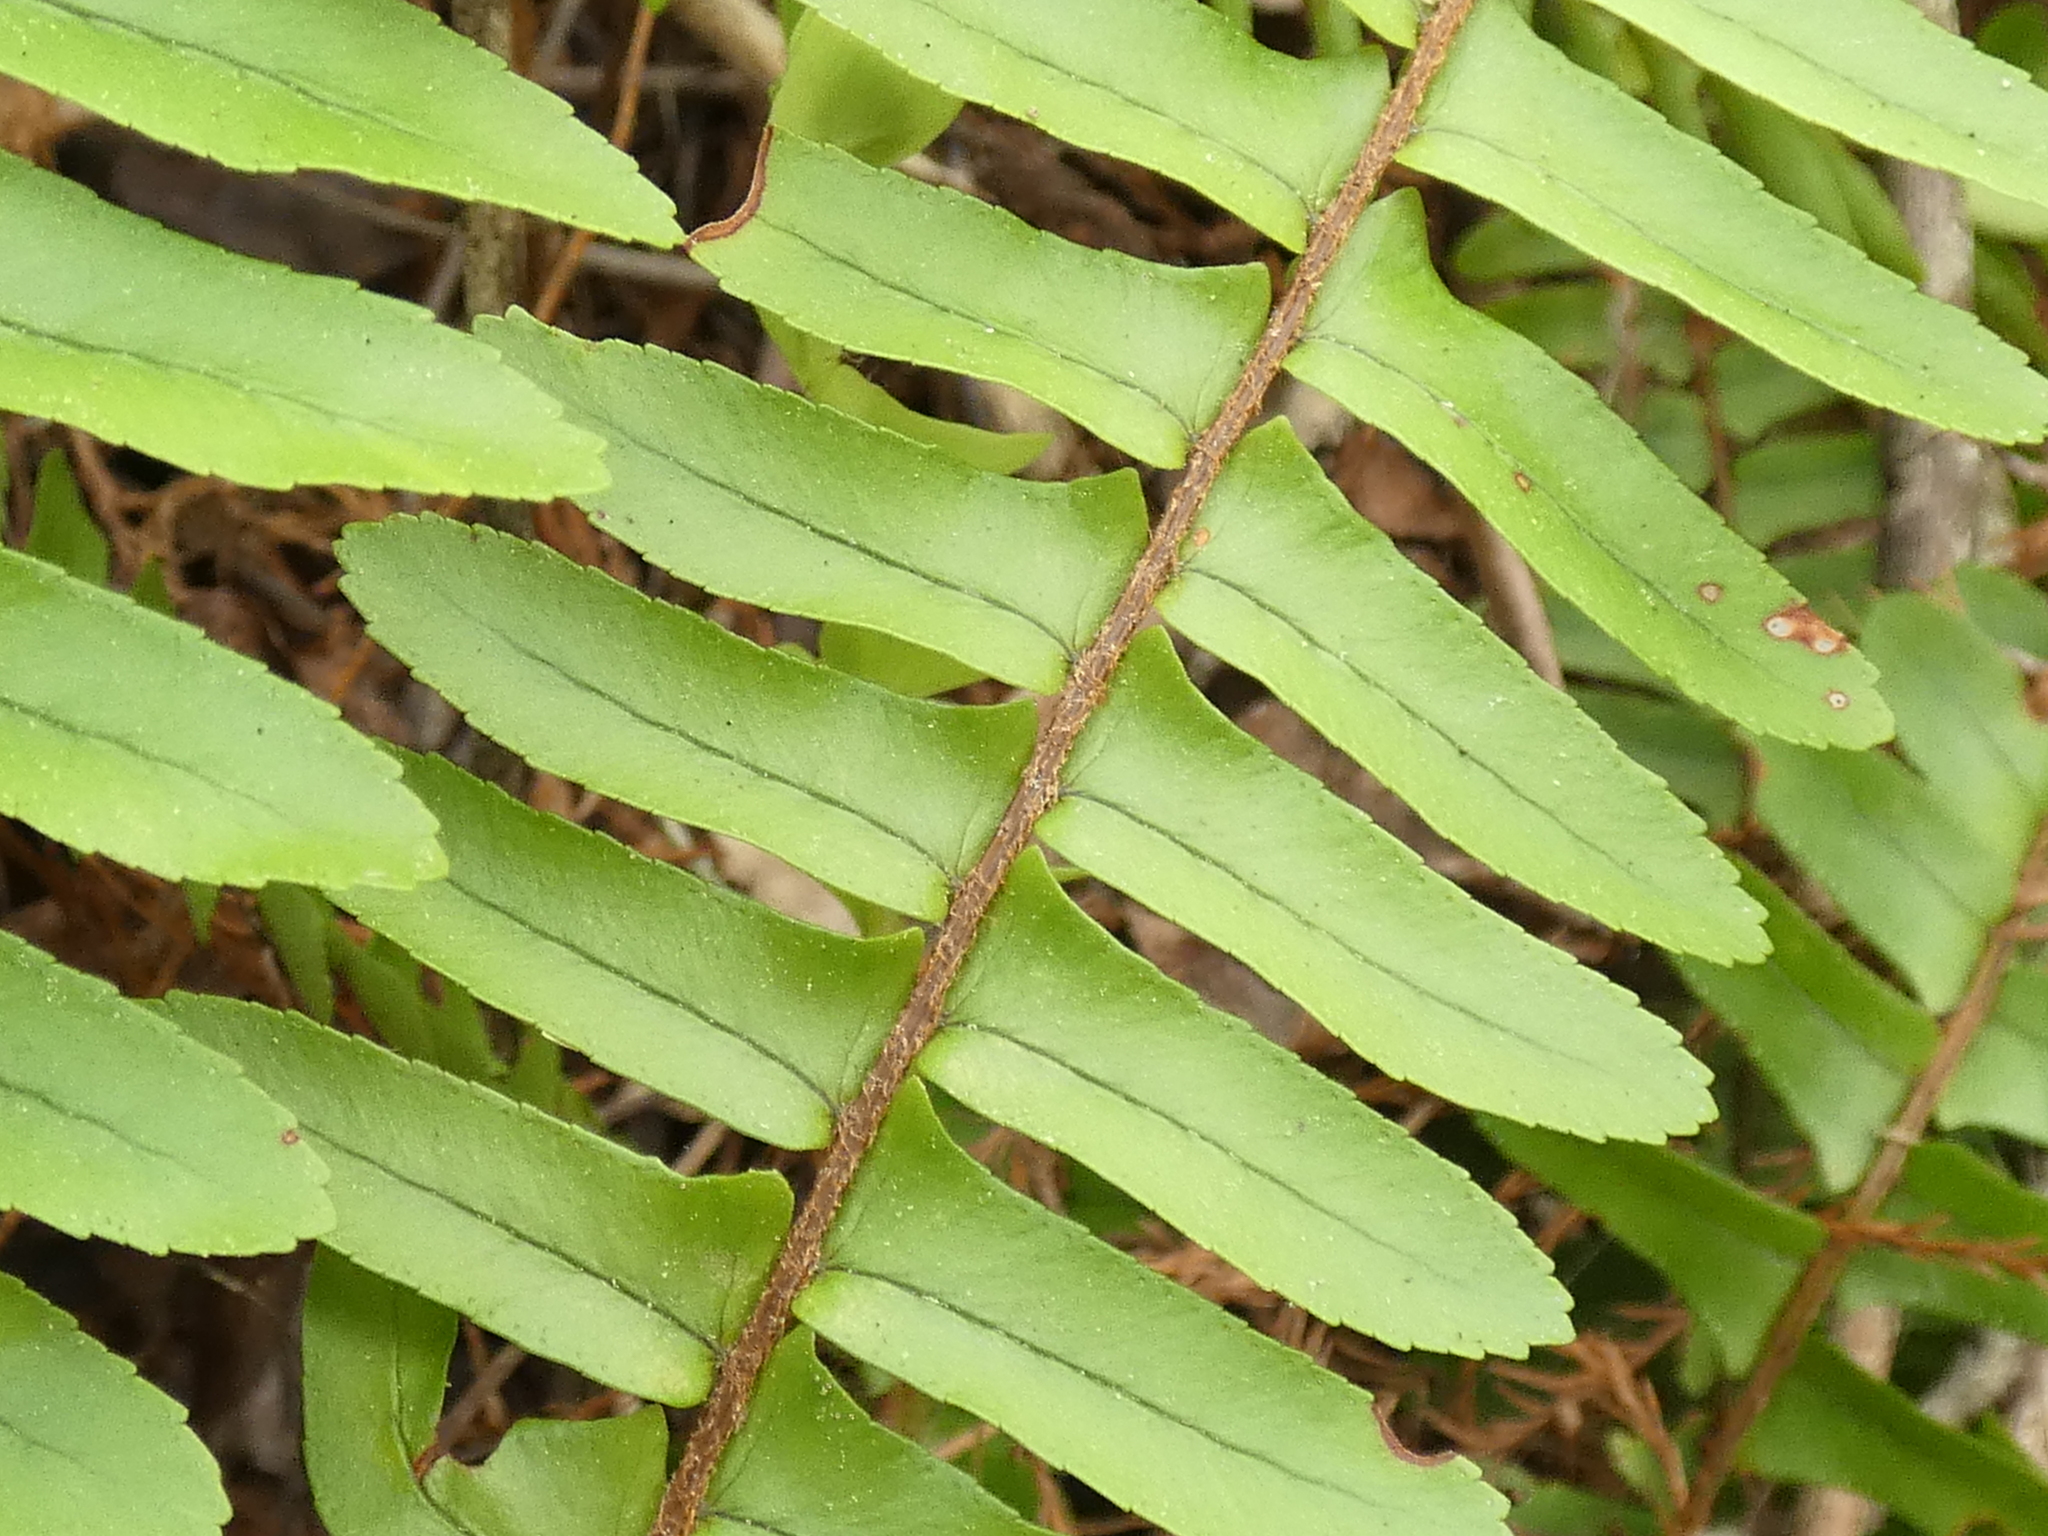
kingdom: Plantae
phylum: Tracheophyta
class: Polypodiopsida
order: Polypodiales
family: Nephrolepidaceae
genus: Nephrolepis
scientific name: Nephrolepis cordifolia
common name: Narrow swordfern
